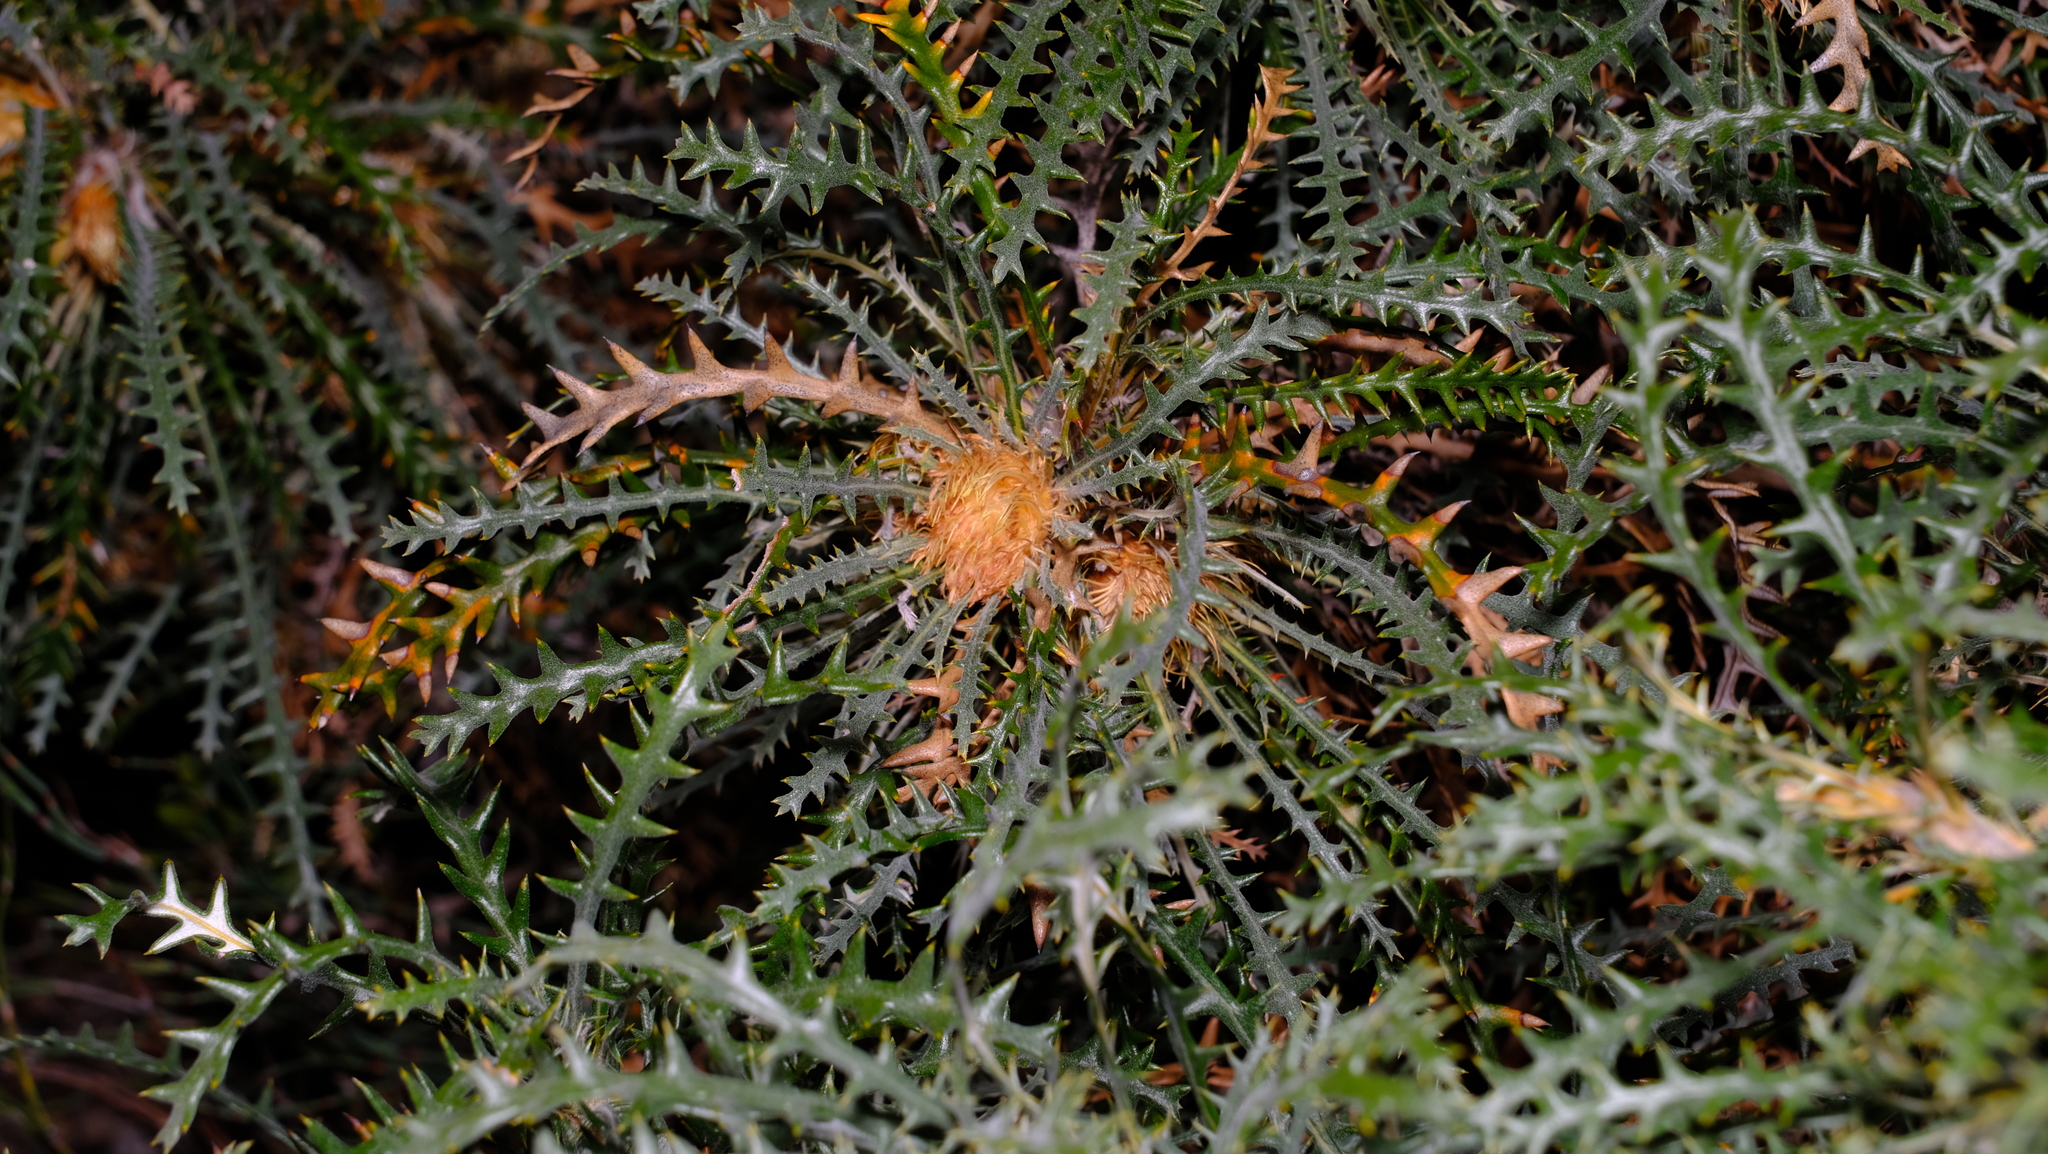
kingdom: Plantae
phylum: Tracheophyta
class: Magnoliopsida
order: Proteales
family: Proteaceae
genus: Banksia
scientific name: Banksia platycarpa
